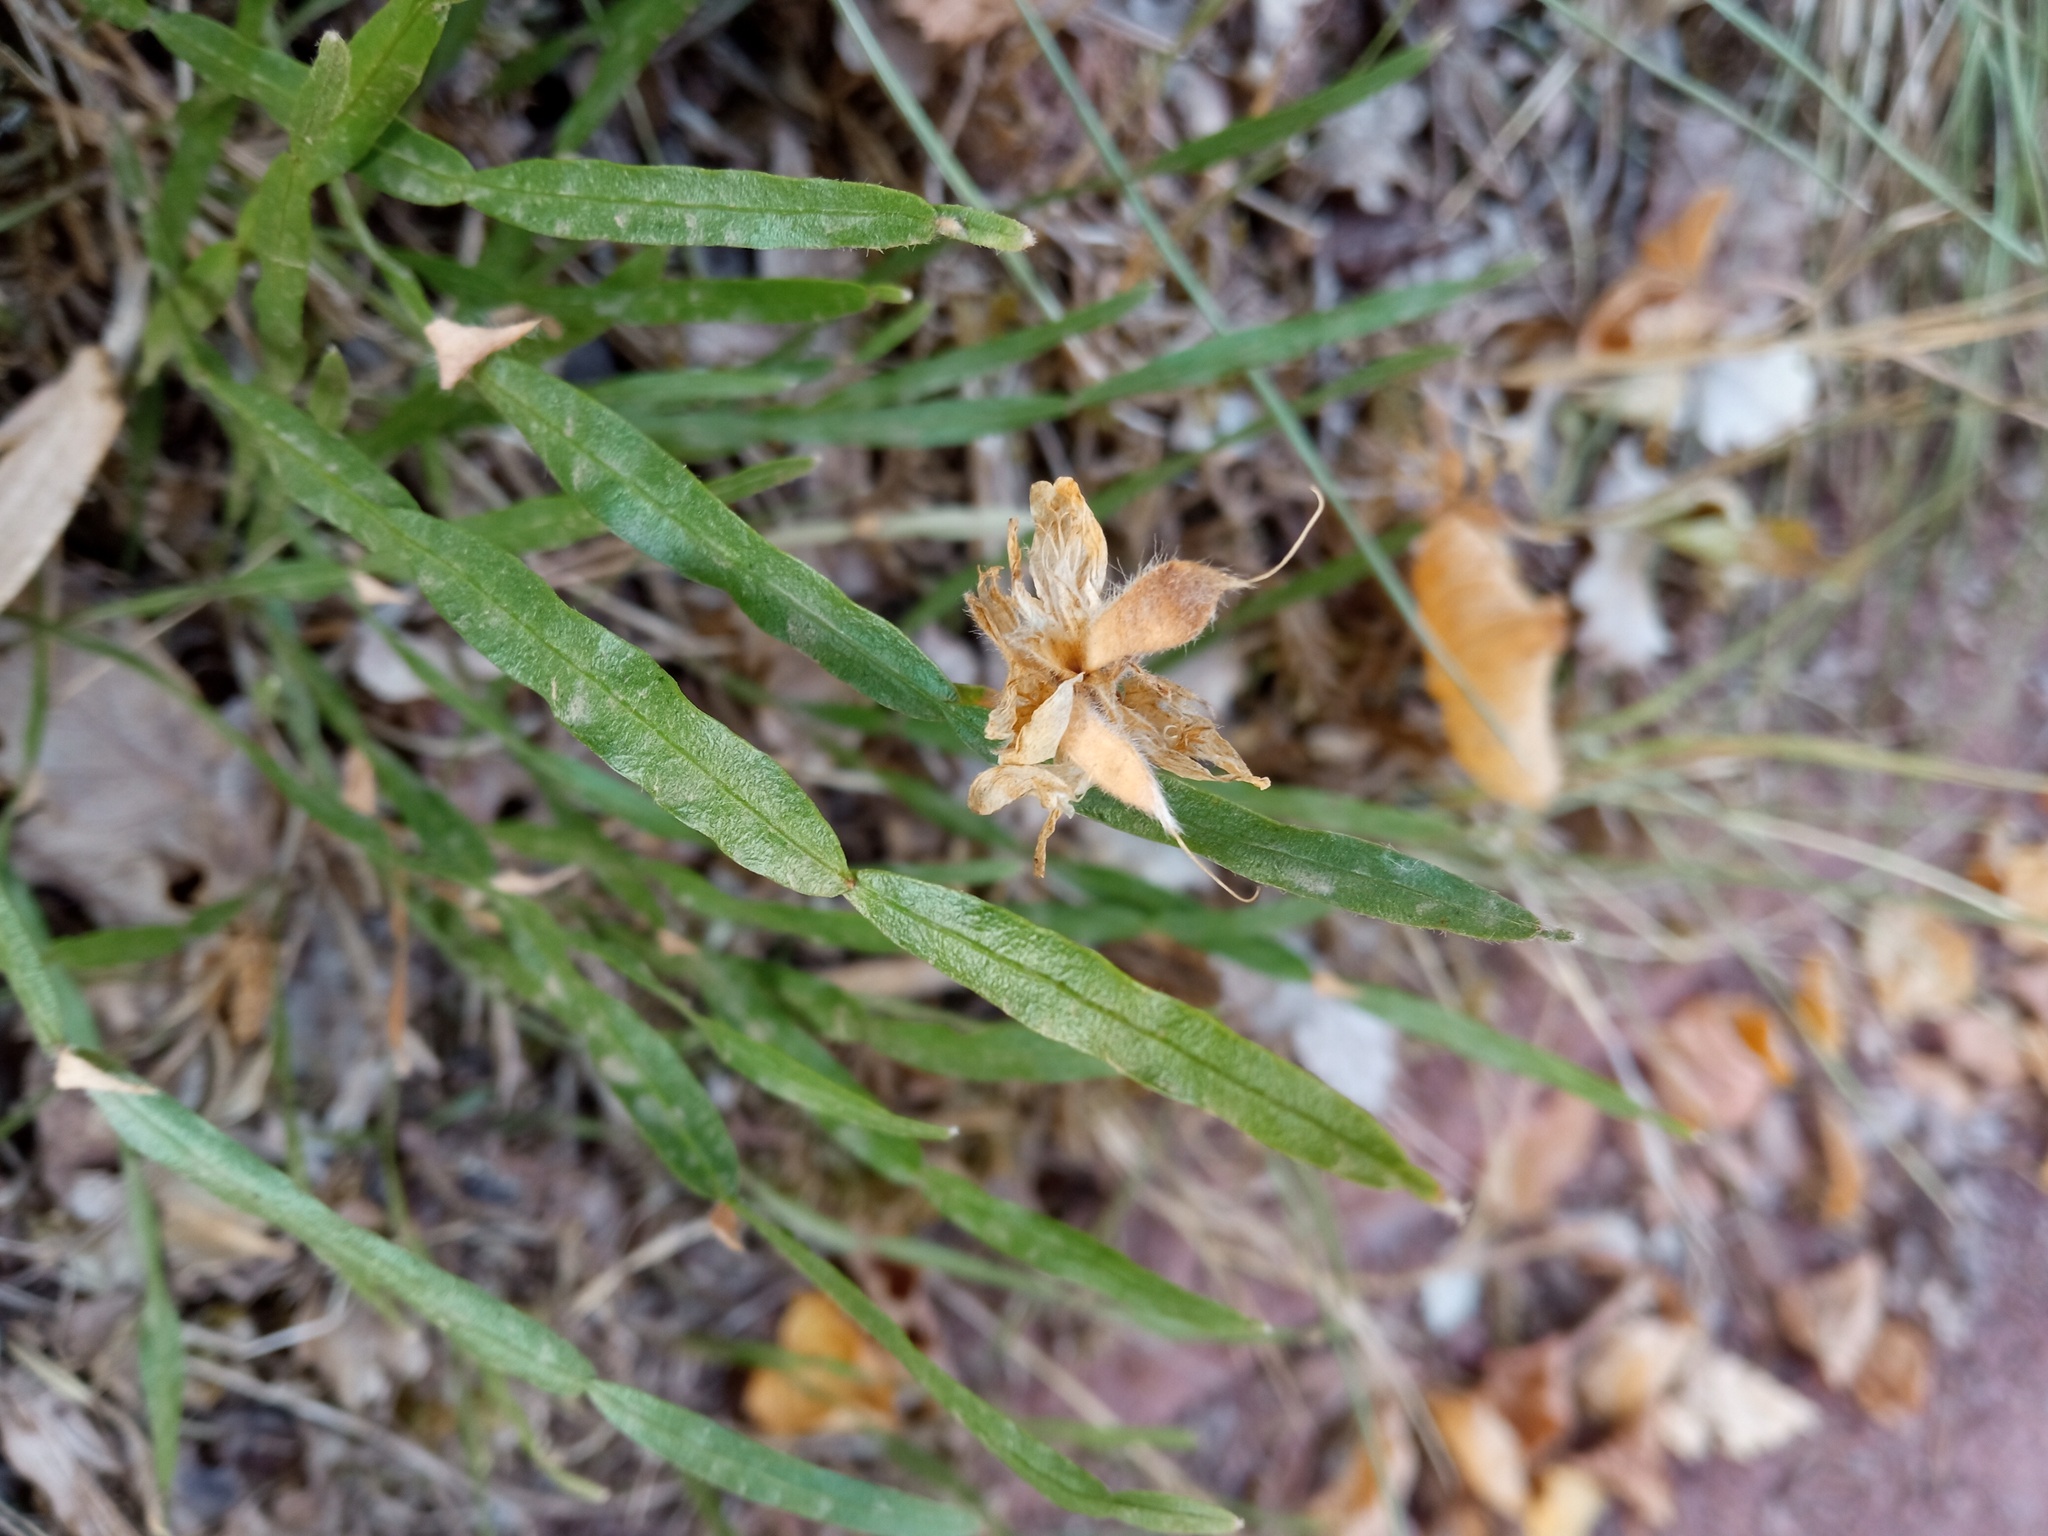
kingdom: Plantae
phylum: Tracheophyta
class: Magnoliopsida
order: Fabales
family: Fabaceae
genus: Genista
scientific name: Genista sagittalis
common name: Winged greenweed
